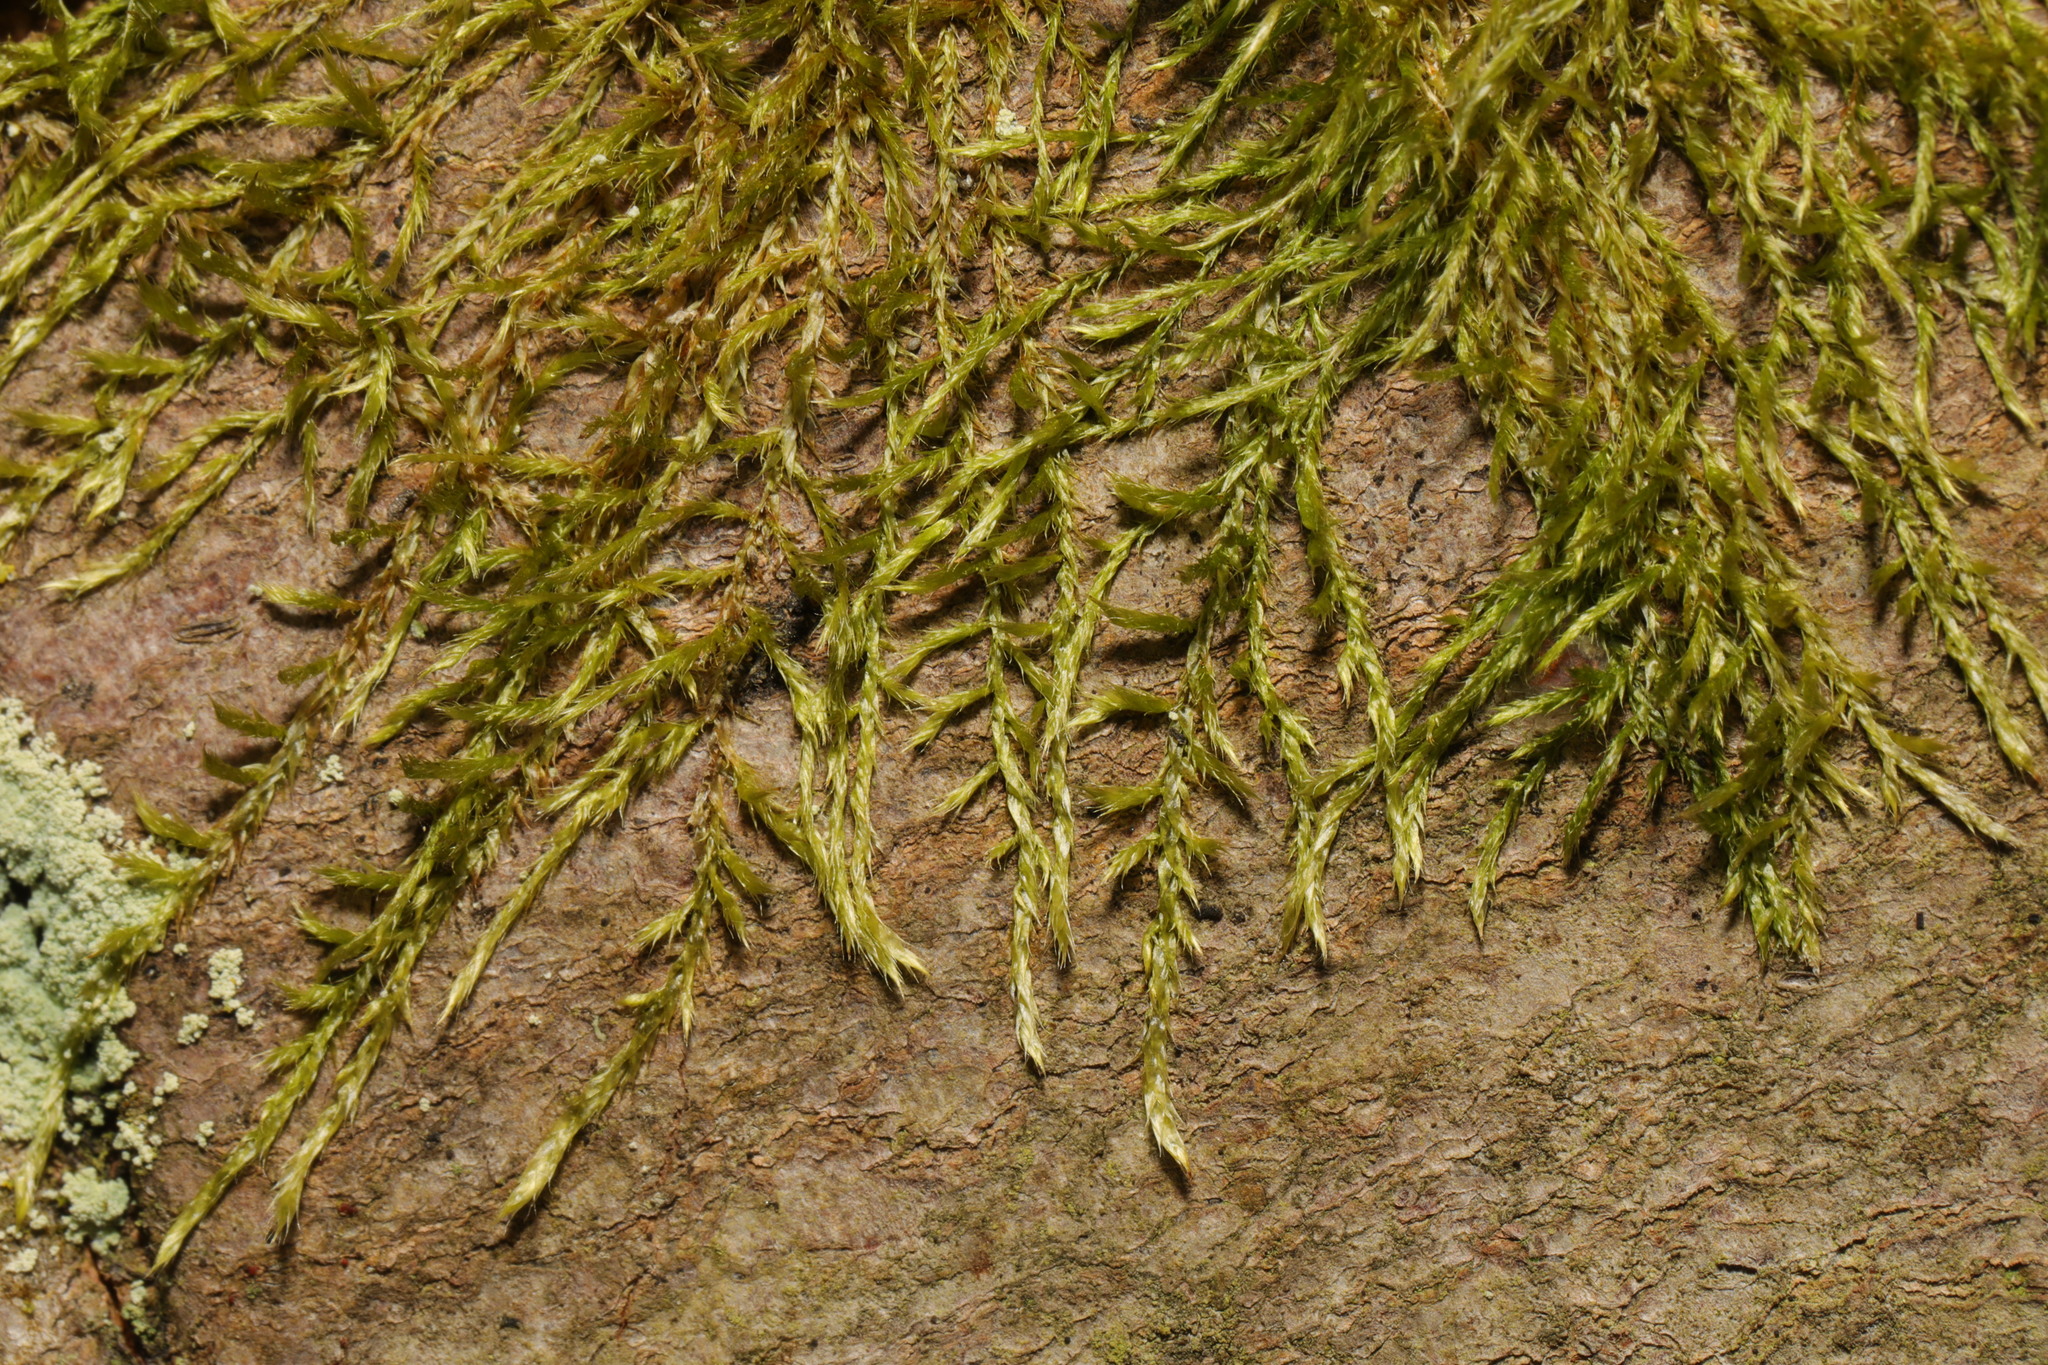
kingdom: Plantae
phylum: Bryophyta
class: Bryopsida
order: Hypnales
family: Hypnaceae
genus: Hypnum
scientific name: Hypnum cupressiforme
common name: Cypress-leaved plait-moss
